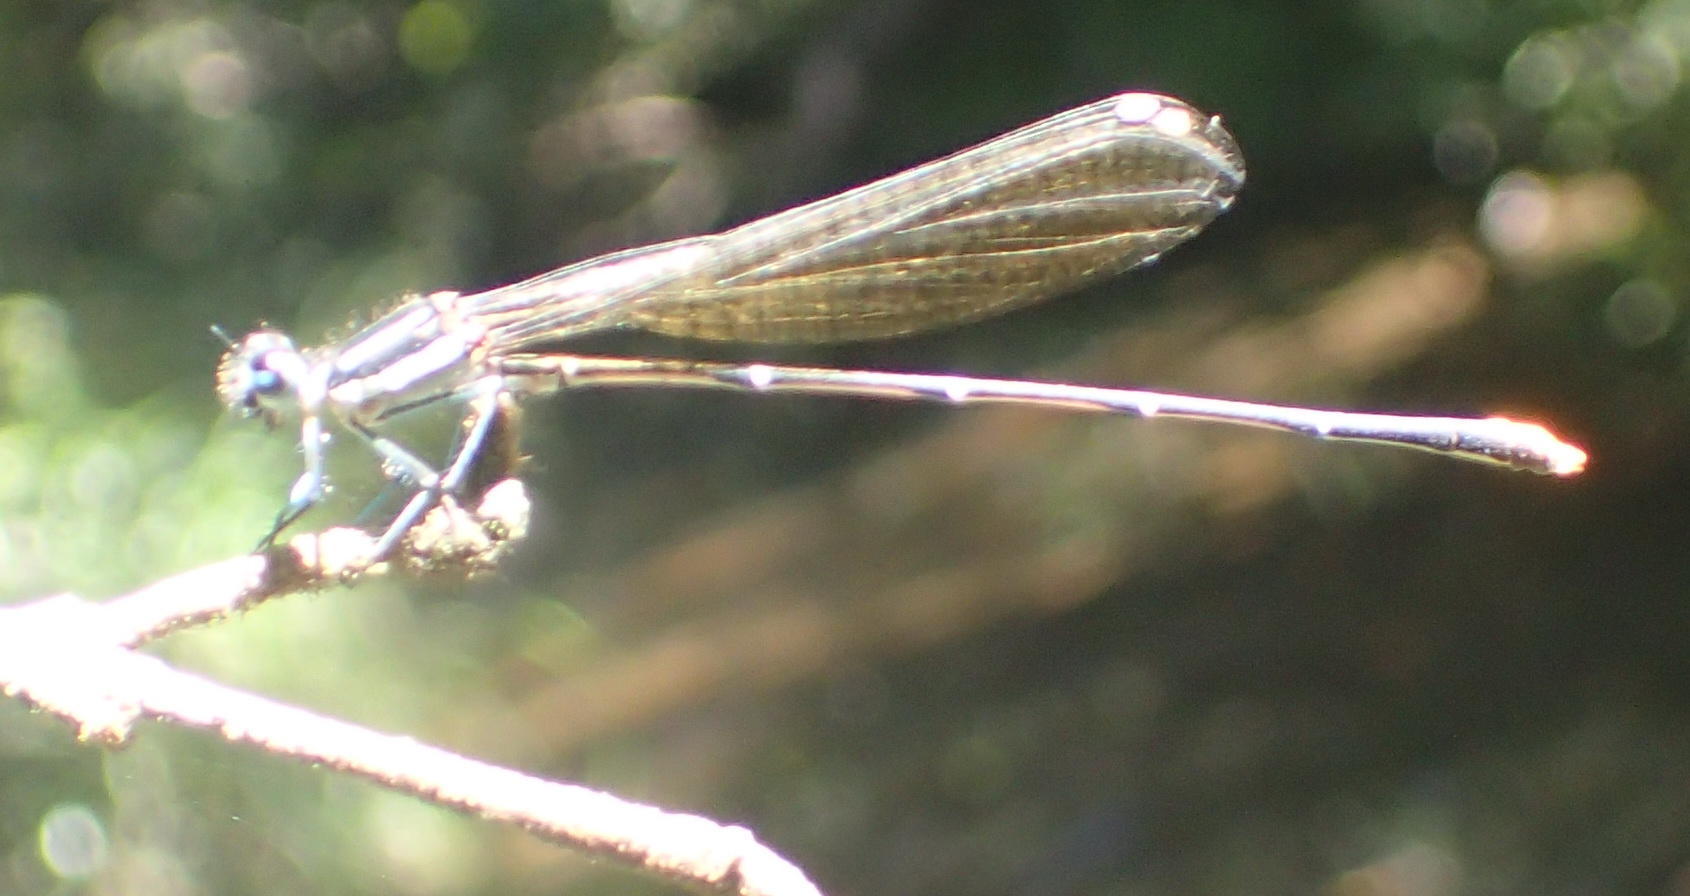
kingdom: Animalia
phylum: Arthropoda
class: Insecta
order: Odonata
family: Platycnemididae
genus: Allocnemis
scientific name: Allocnemis leucosticta
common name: Goldtail
